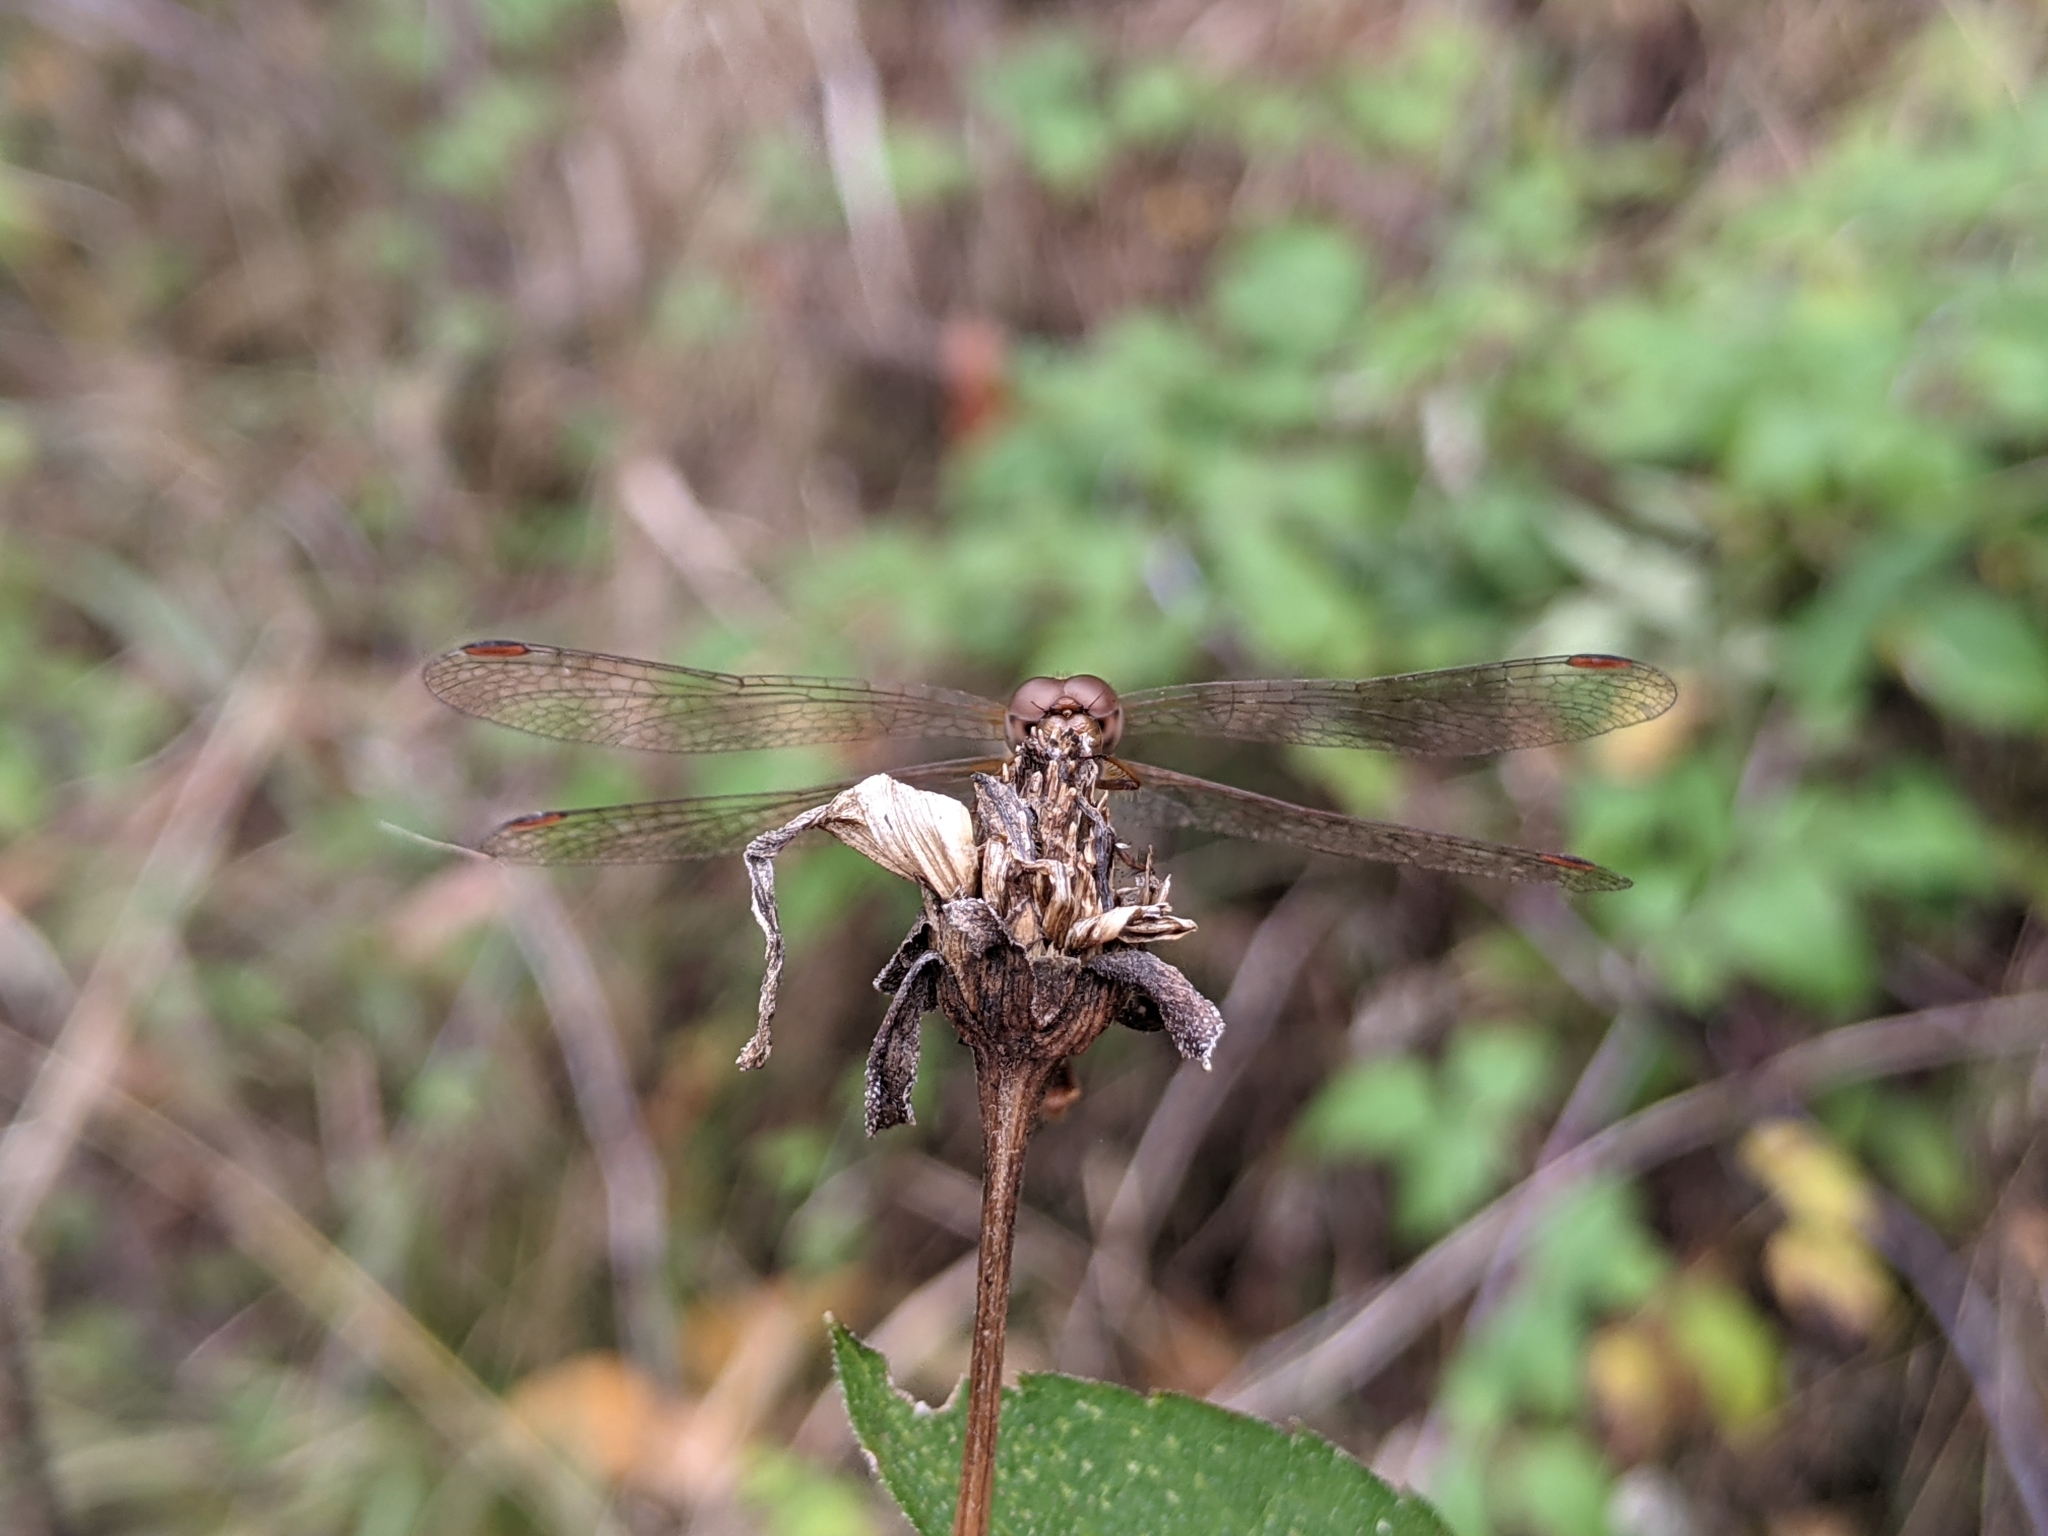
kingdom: Animalia
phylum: Arthropoda
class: Insecta
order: Odonata
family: Libellulidae
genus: Sympetrum
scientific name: Sympetrum vicinum
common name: Autumn meadowhawk
